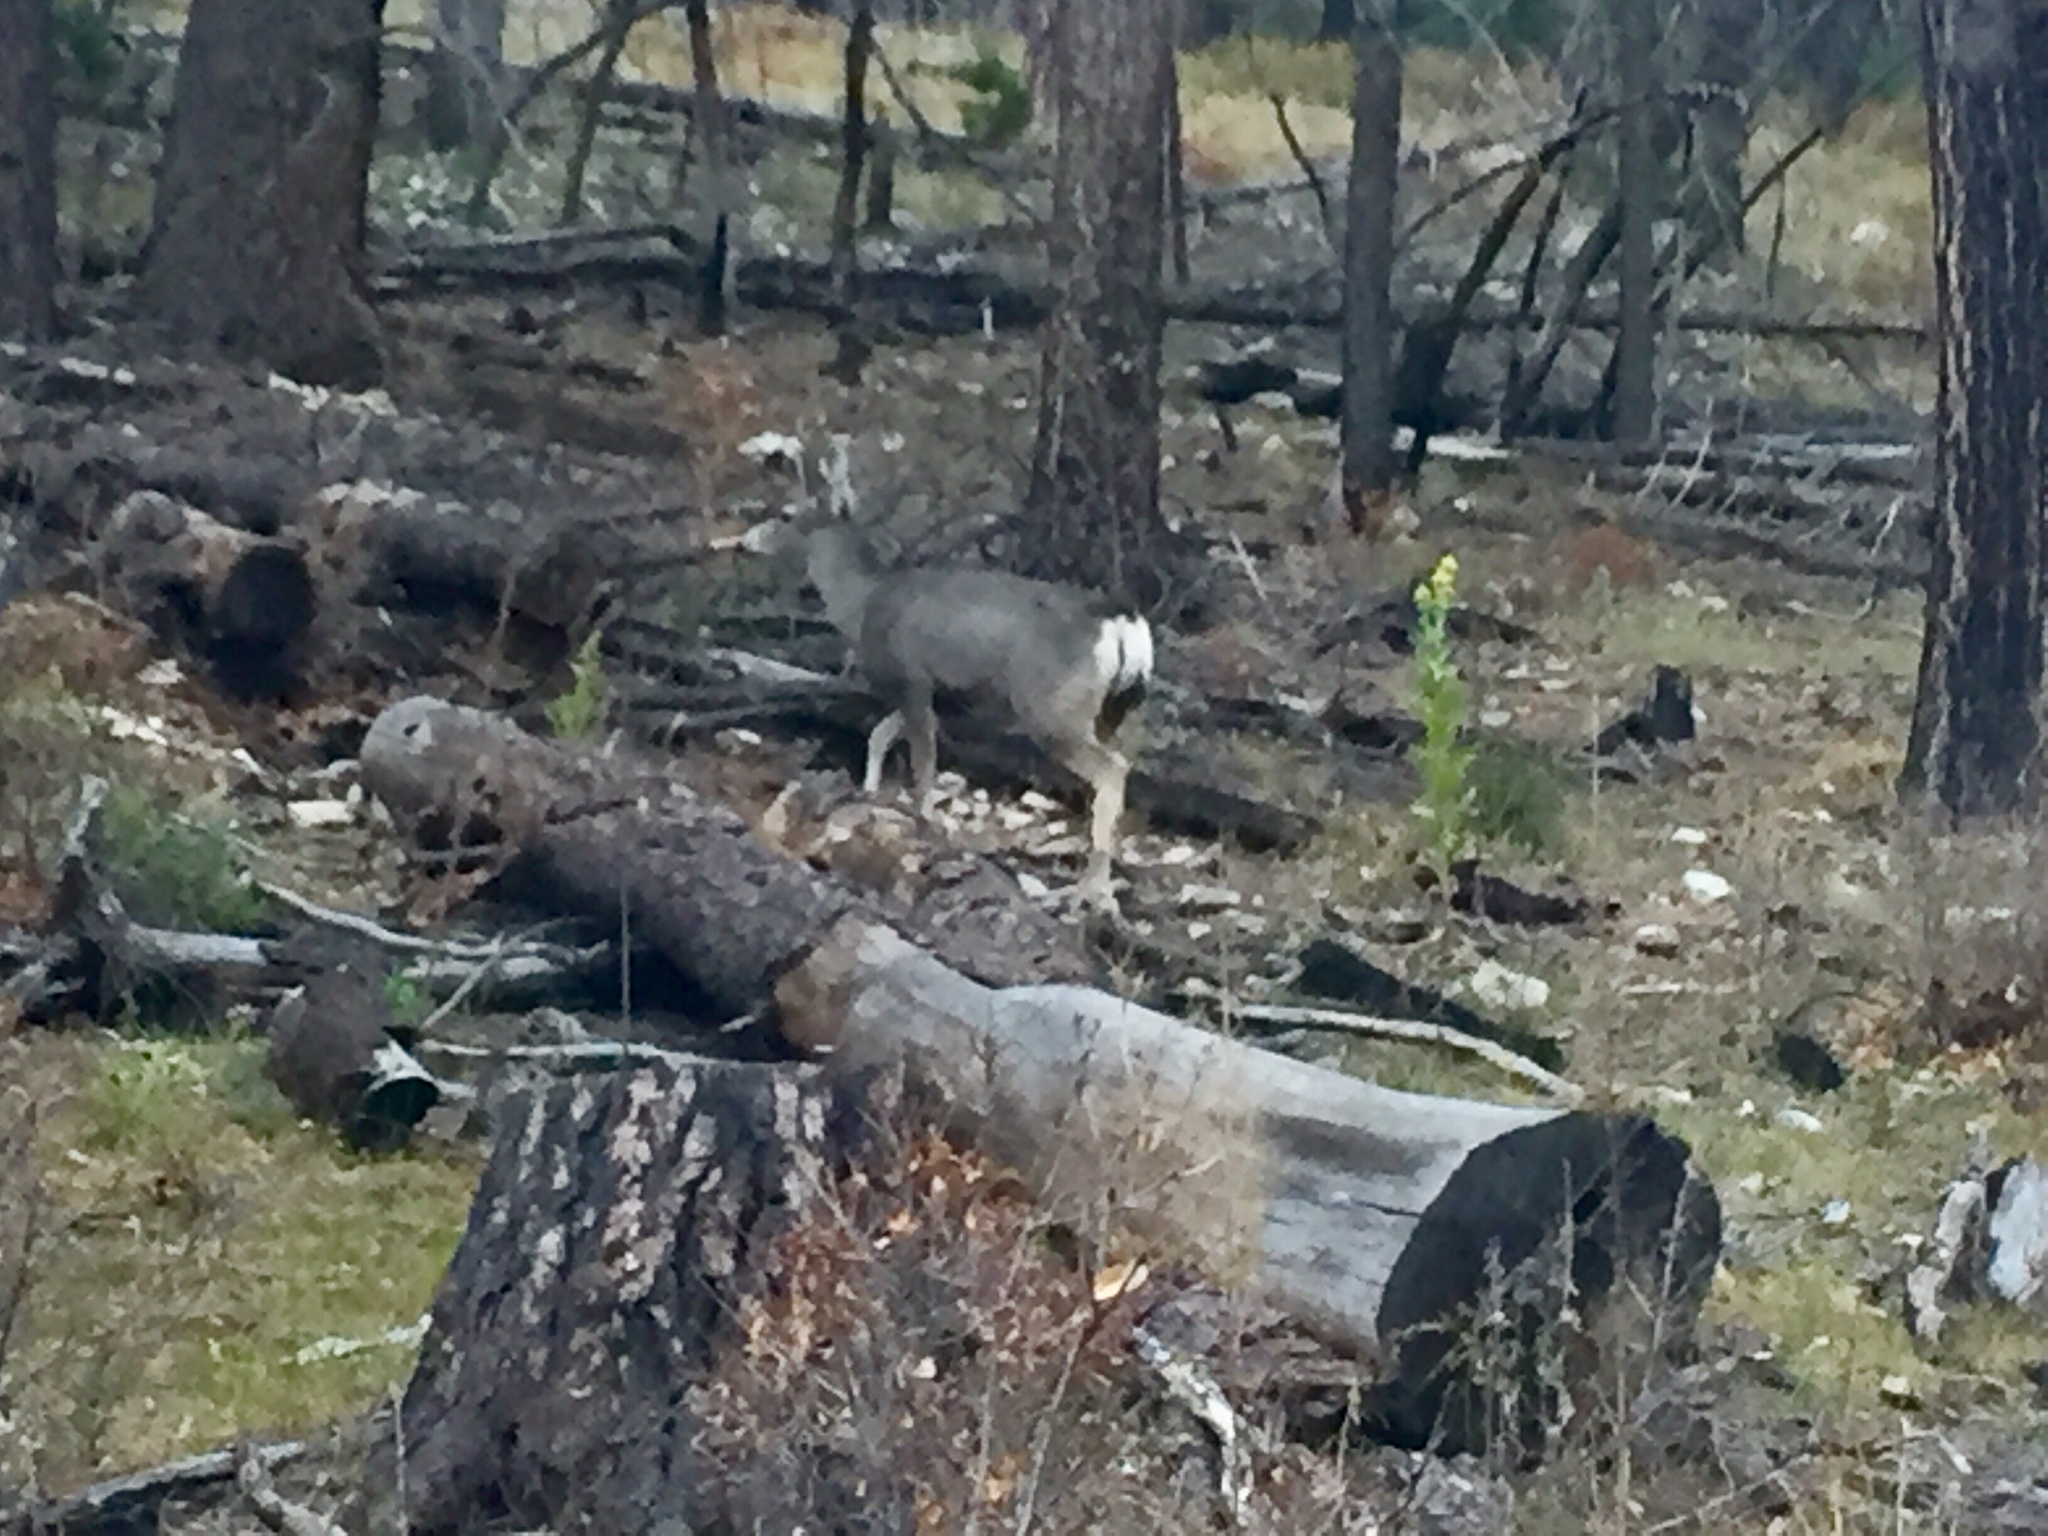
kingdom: Animalia
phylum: Chordata
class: Mammalia
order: Artiodactyla
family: Cervidae
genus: Odocoileus
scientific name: Odocoileus hemionus
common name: Mule deer
